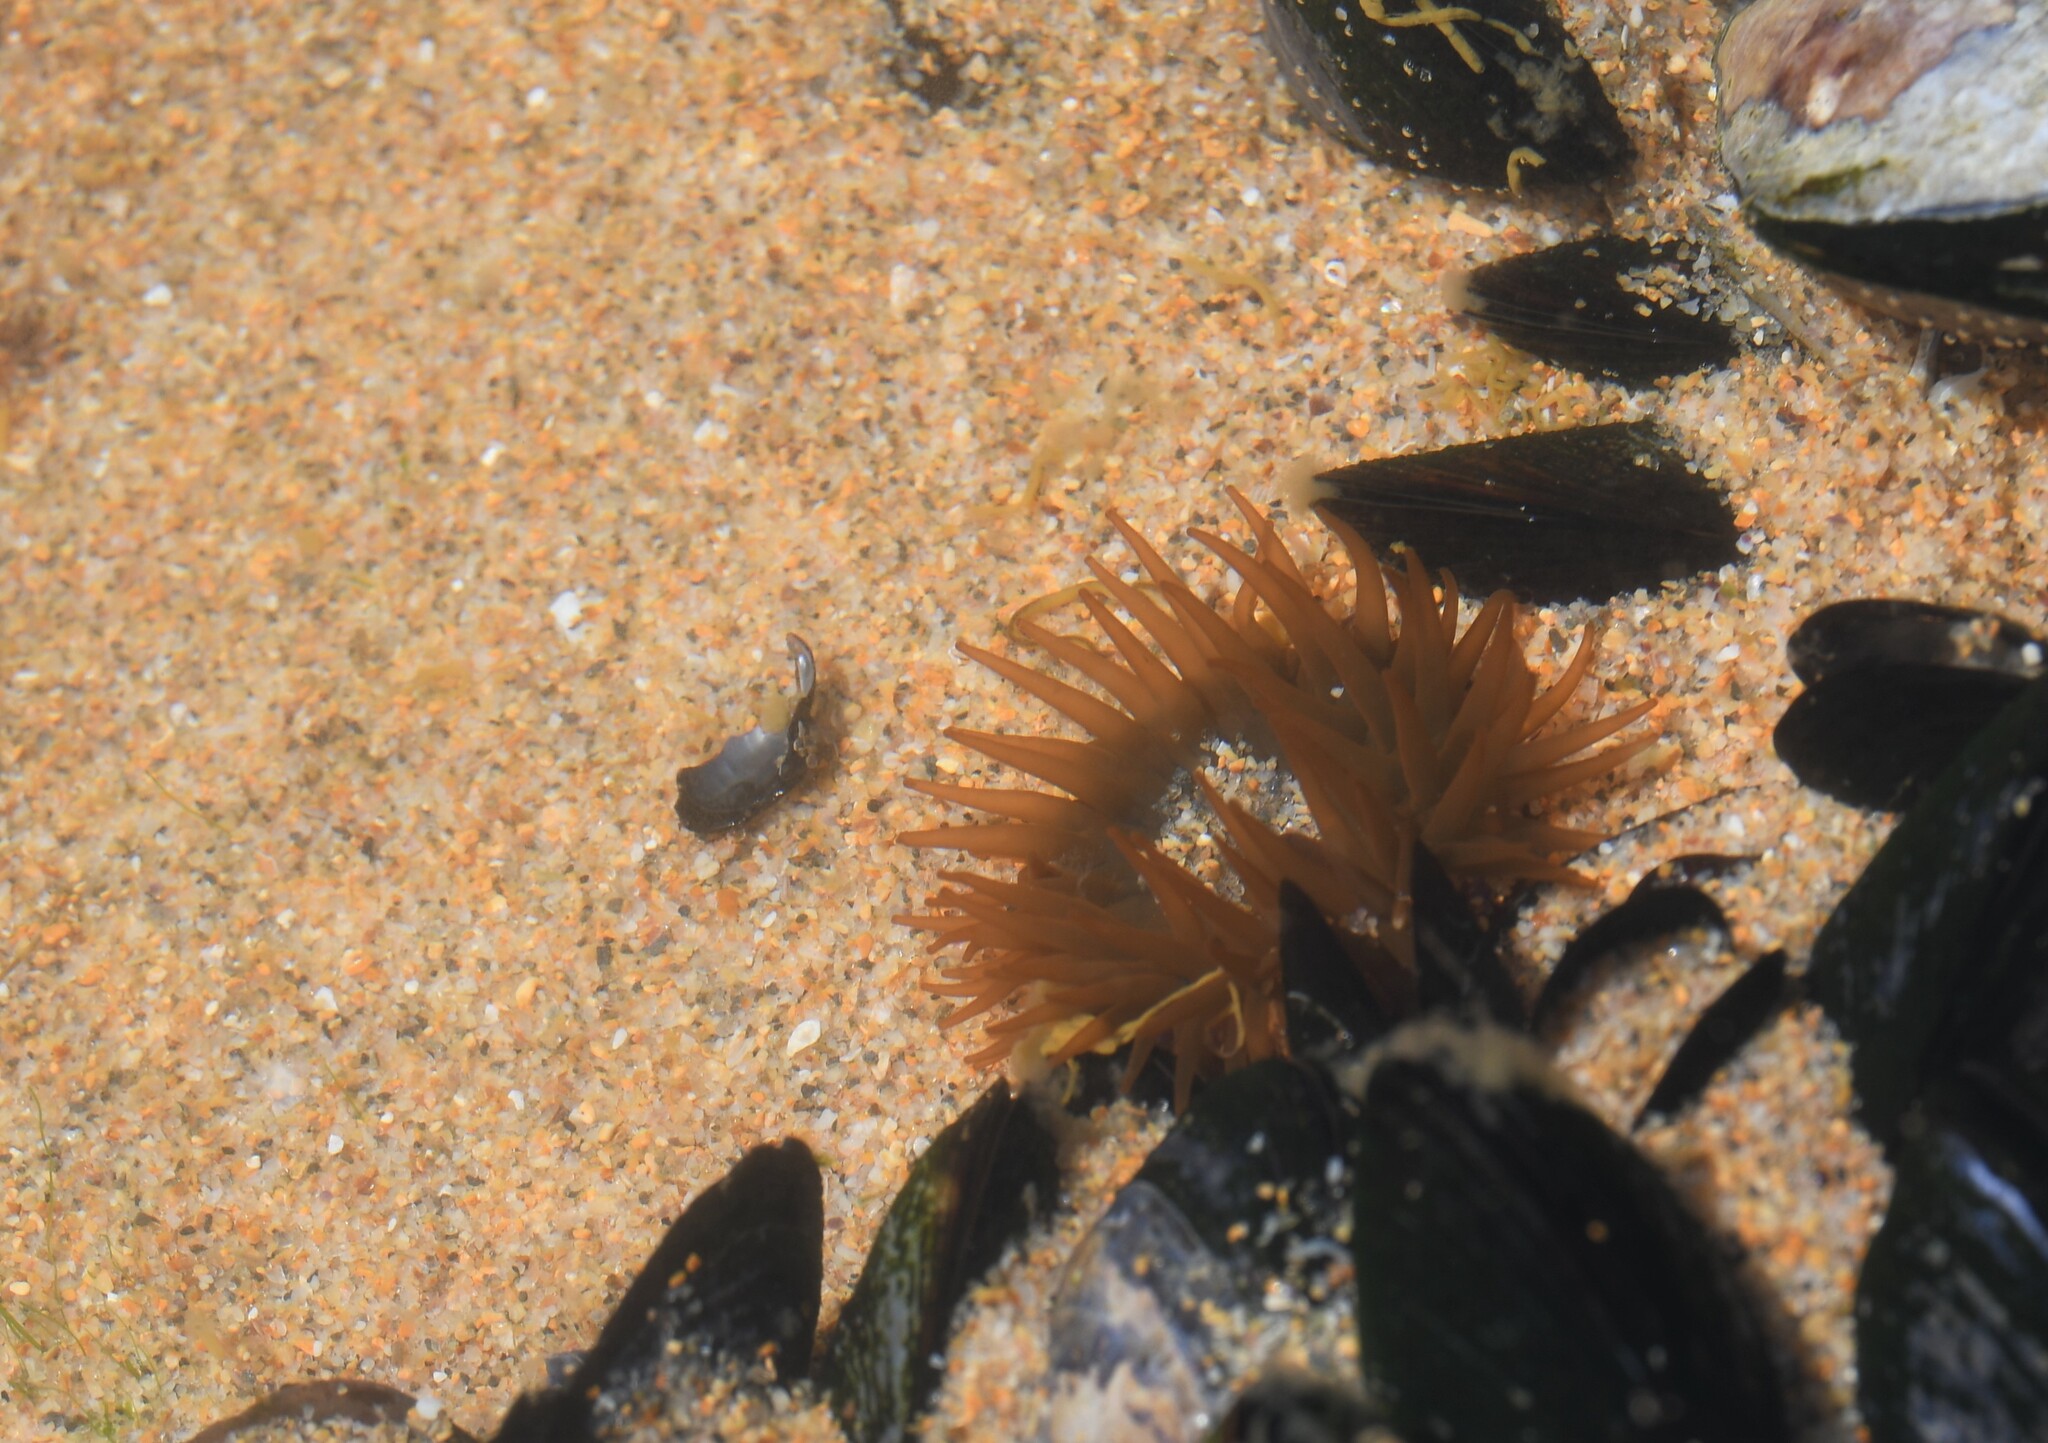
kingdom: Animalia
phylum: Cnidaria
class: Anthozoa
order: Actiniaria
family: Actiniidae
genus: Actinia
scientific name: Actinia equina
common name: Beadlet anemone
